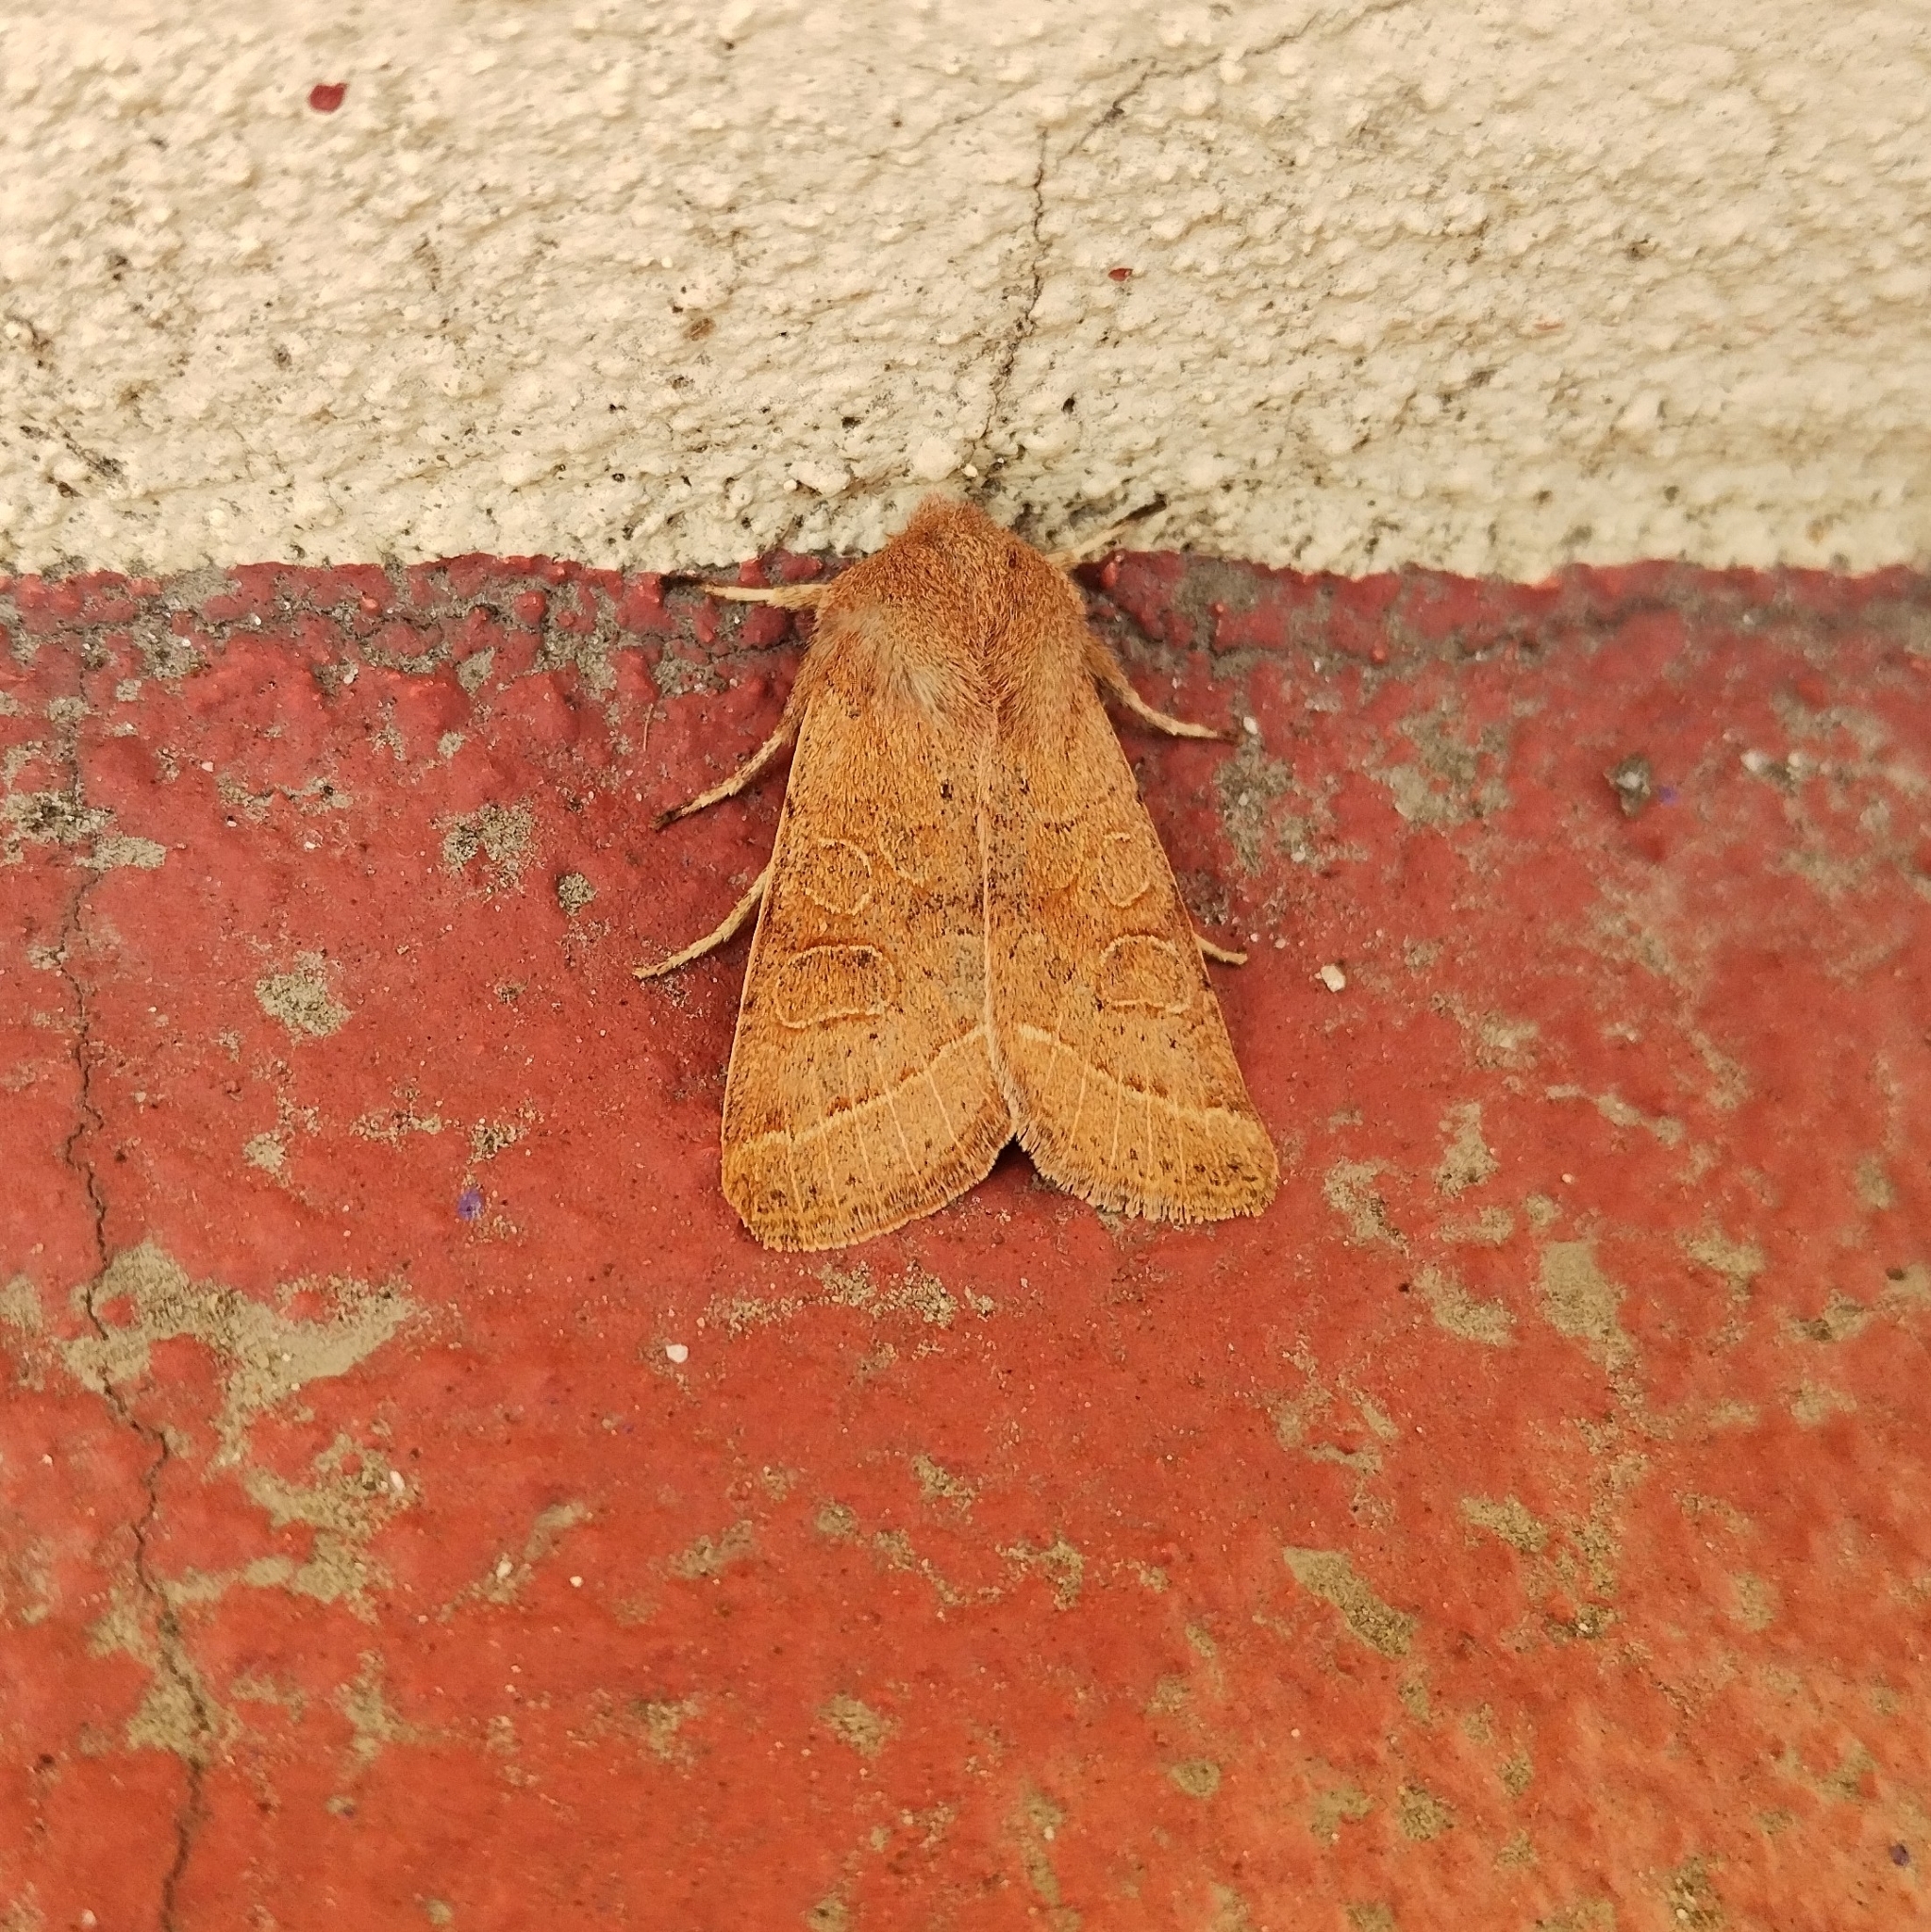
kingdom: Animalia
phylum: Arthropoda
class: Insecta
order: Lepidoptera
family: Noctuidae
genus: Orthosia
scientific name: Orthosia cerasi
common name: Common quaker
